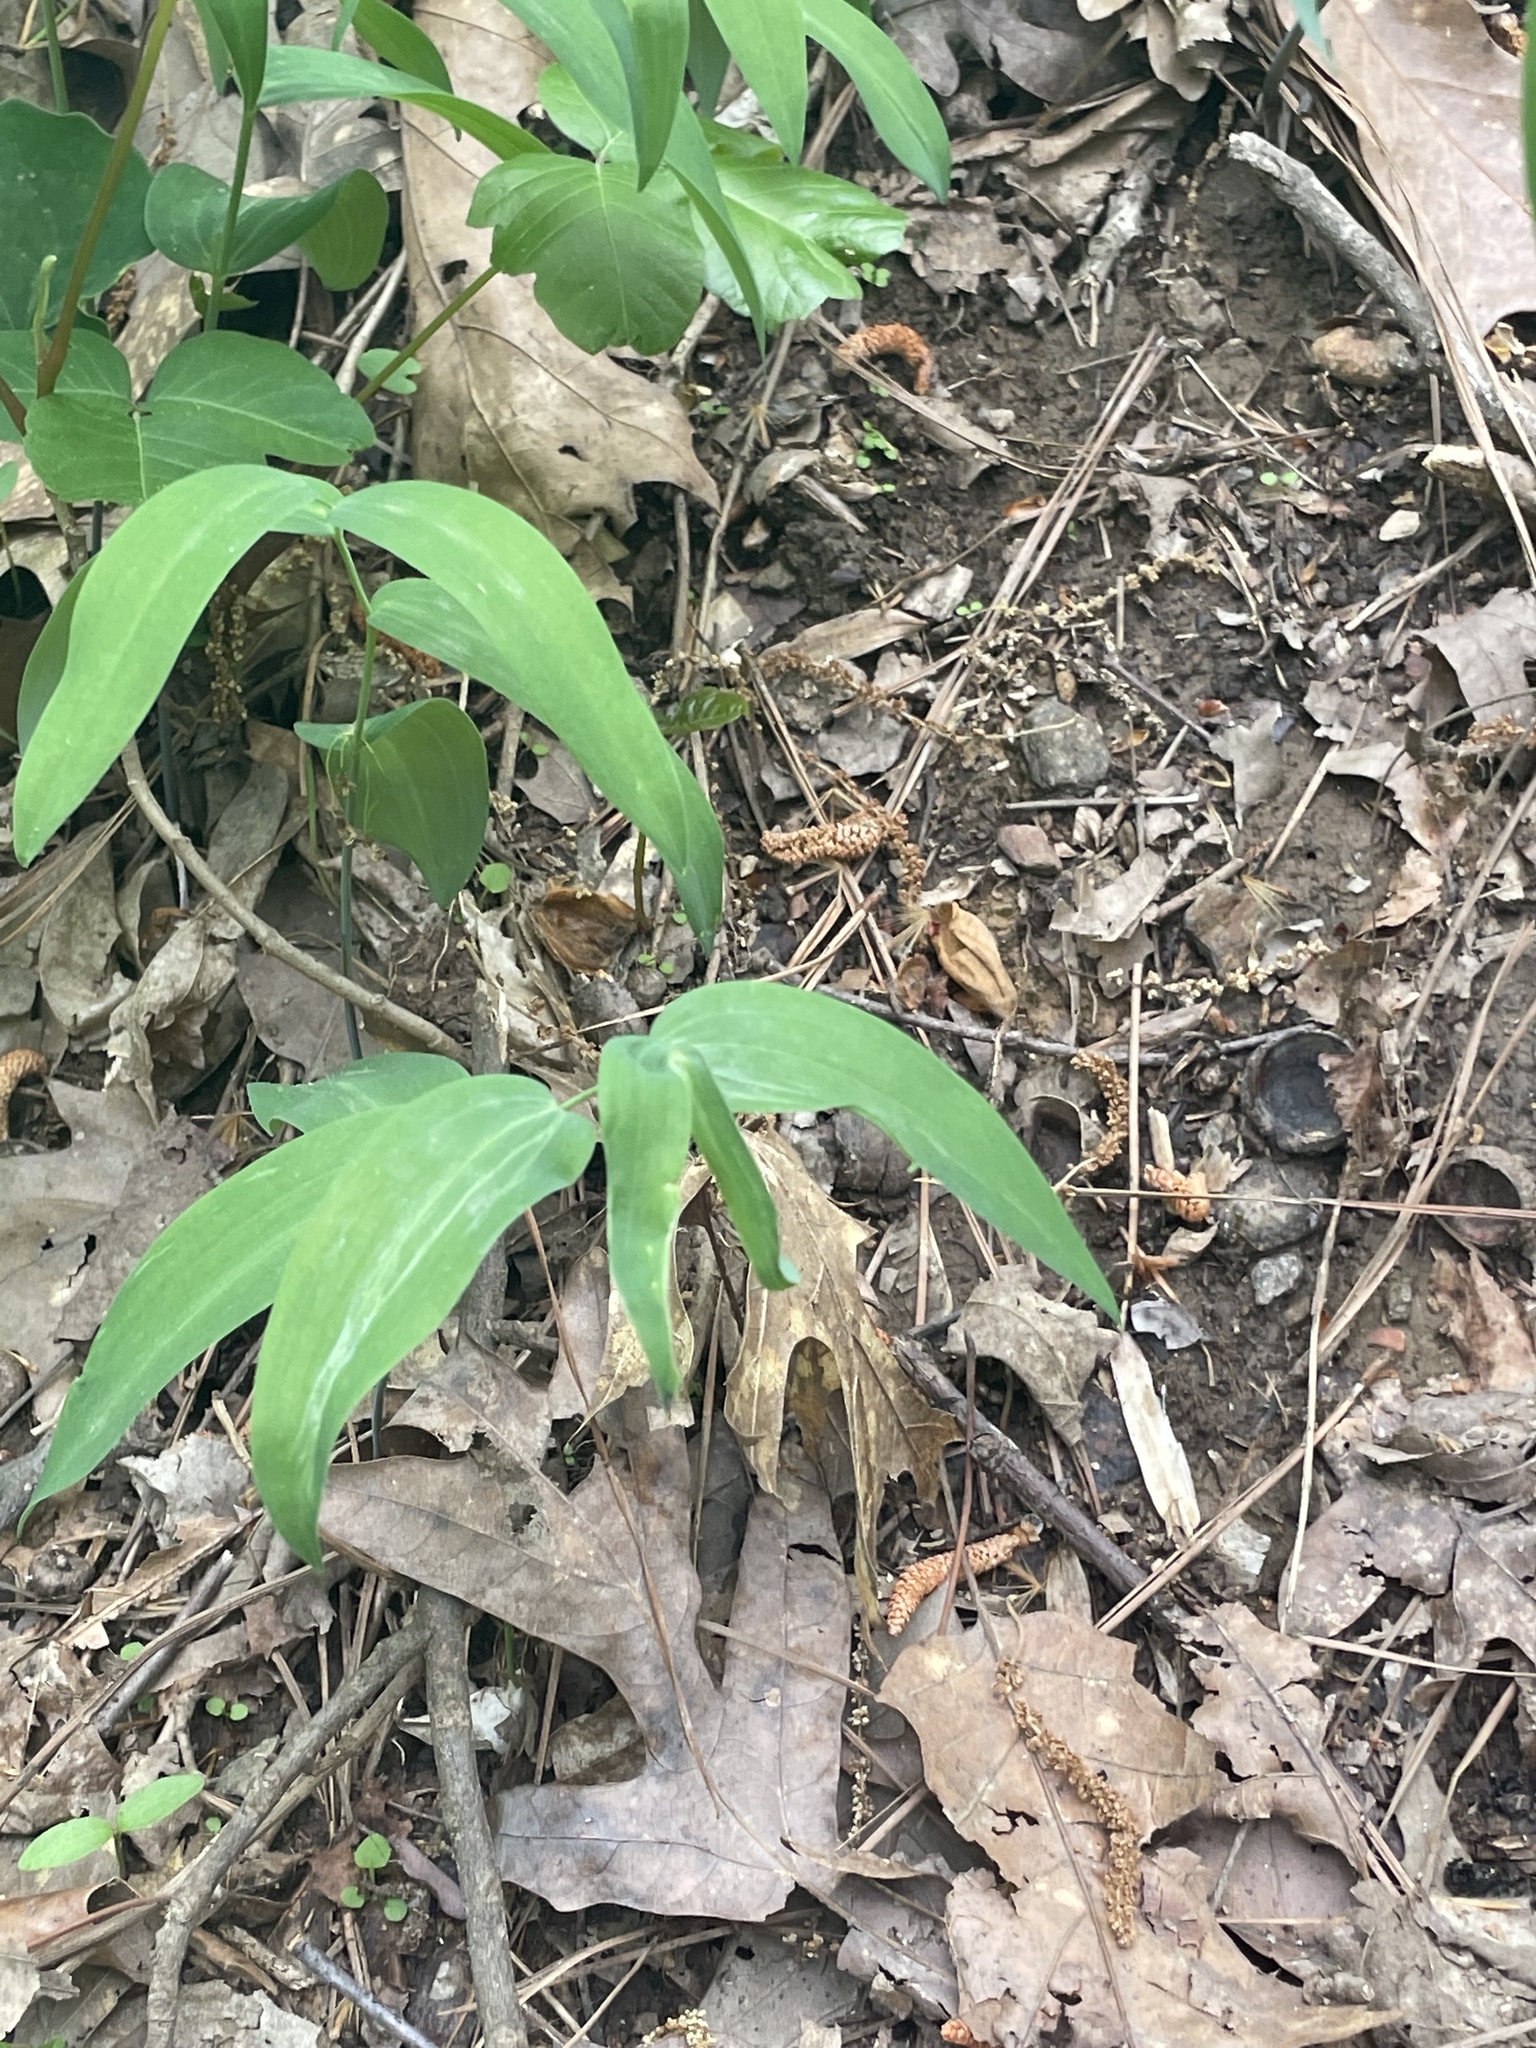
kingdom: Plantae
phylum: Tracheophyta
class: Liliopsida
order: Asparagales
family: Asparagaceae
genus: Polygonatum
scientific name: Polygonatum biflorum
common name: American solomon's-seal
